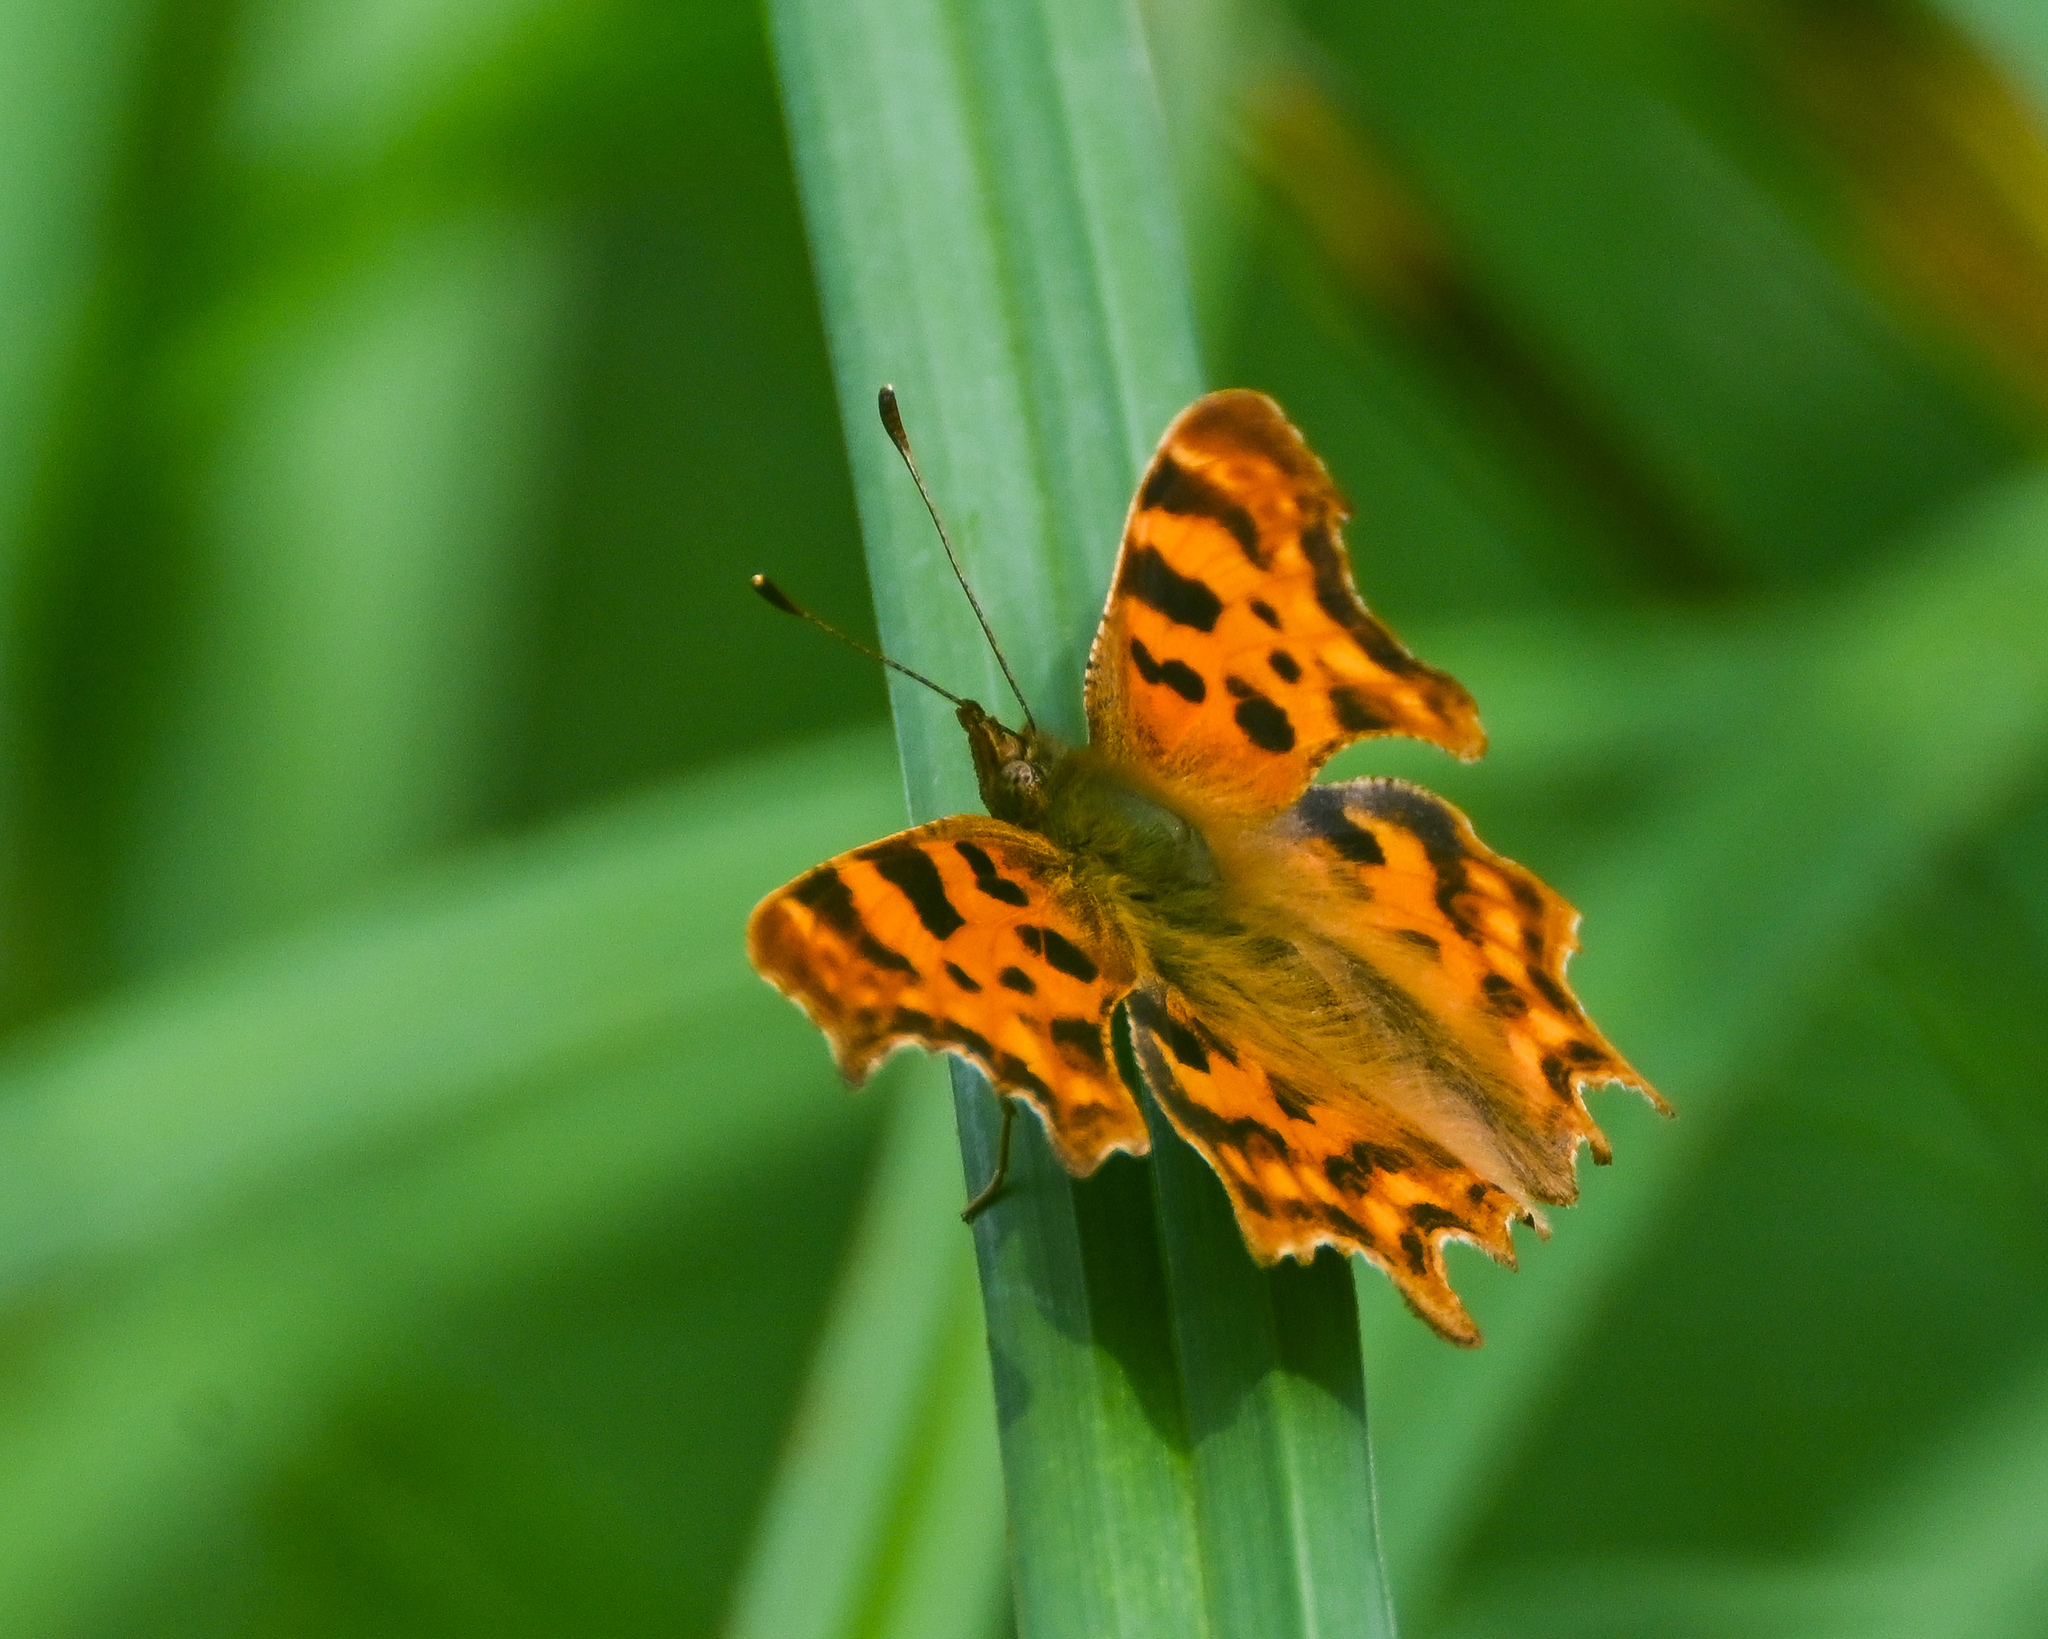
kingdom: Animalia
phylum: Arthropoda
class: Insecta
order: Lepidoptera
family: Nymphalidae
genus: Polygonia
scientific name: Polygonia c-album
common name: Comma
